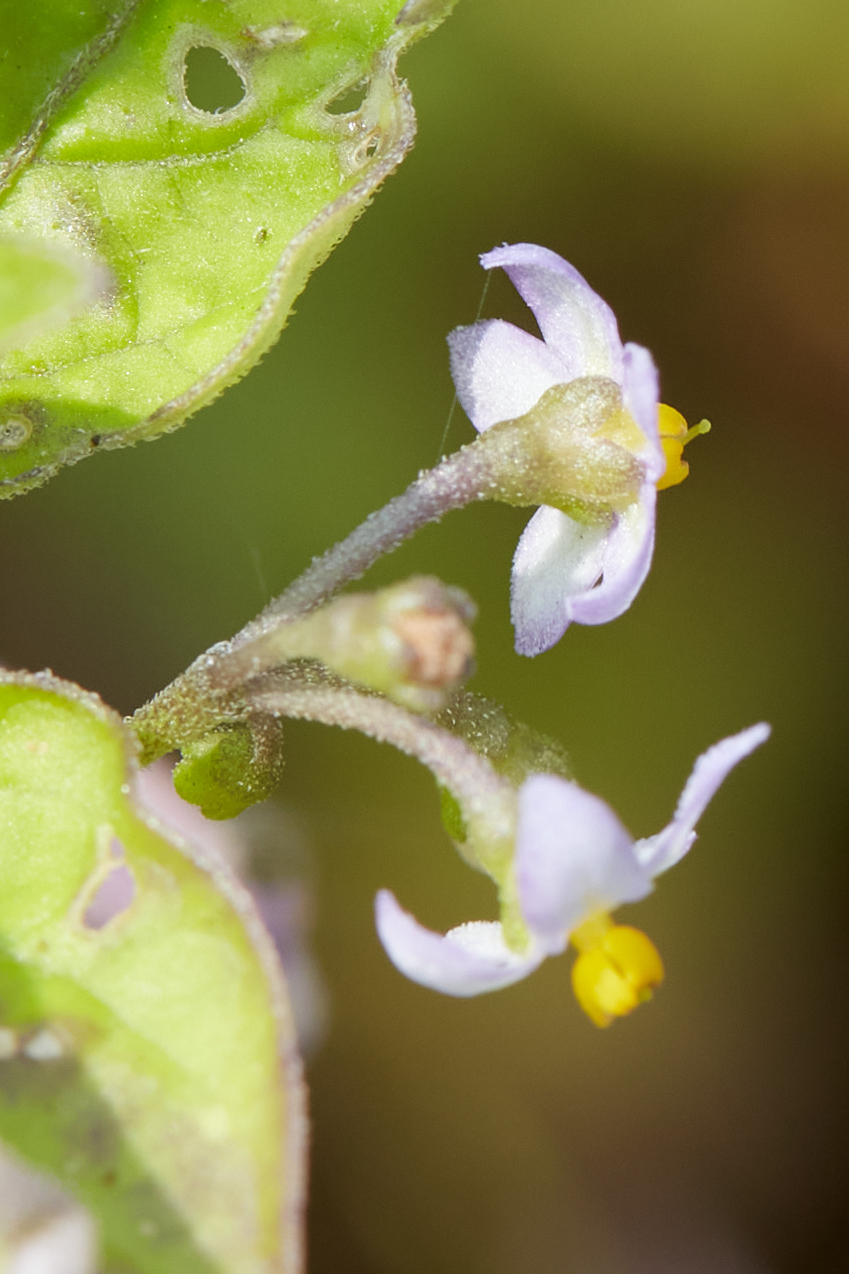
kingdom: Plantae
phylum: Tracheophyta
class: Magnoliopsida
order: Solanales
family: Solanaceae
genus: Solanum
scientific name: Solanum americanum
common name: American black nightshade
